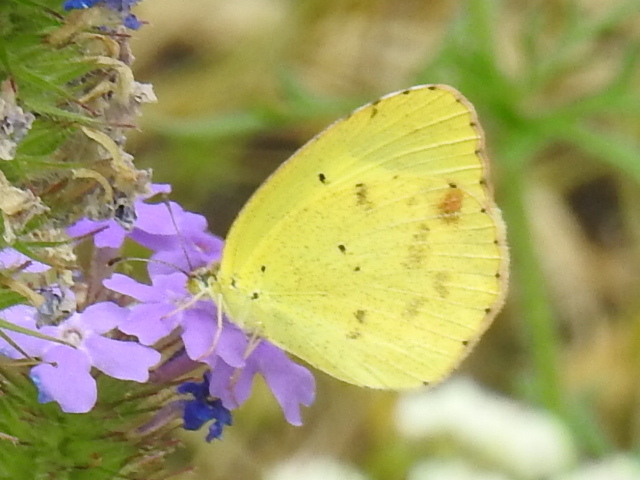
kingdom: Animalia
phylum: Arthropoda
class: Insecta
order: Lepidoptera
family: Pieridae
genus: Pyrisitia
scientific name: Pyrisitia lisa
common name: Little yellow
